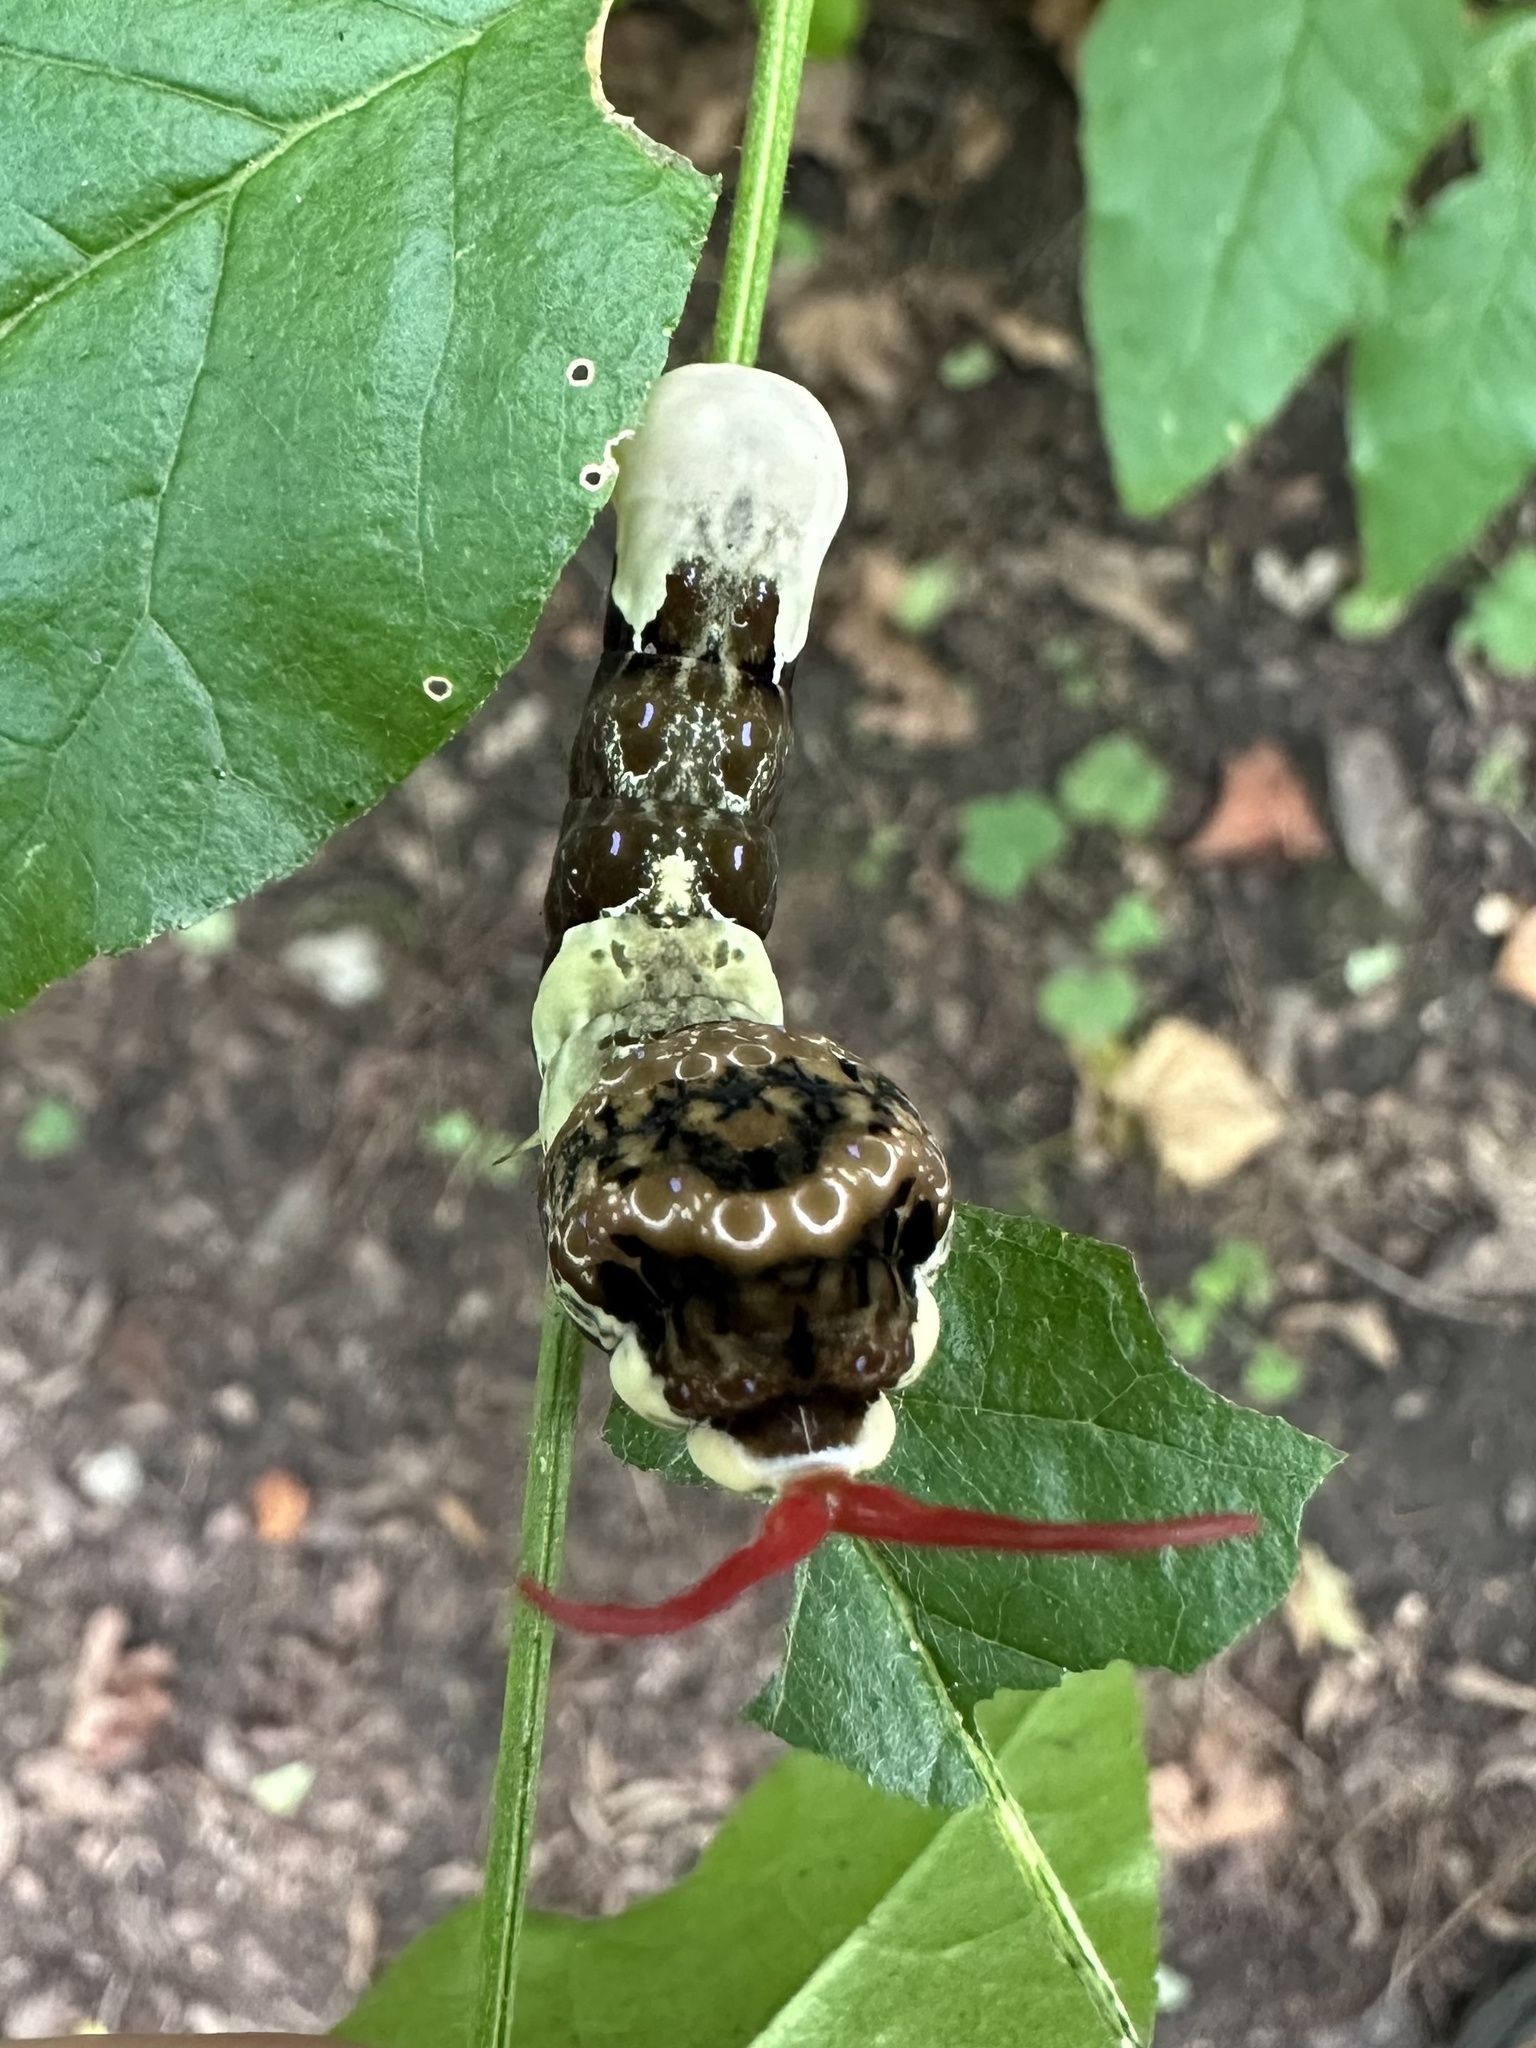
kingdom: Animalia
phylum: Arthropoda
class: Insecta
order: Lepidoptera
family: Papilionidae
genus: Papilio
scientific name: Papilio cresphontes
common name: Giant swallowtail
